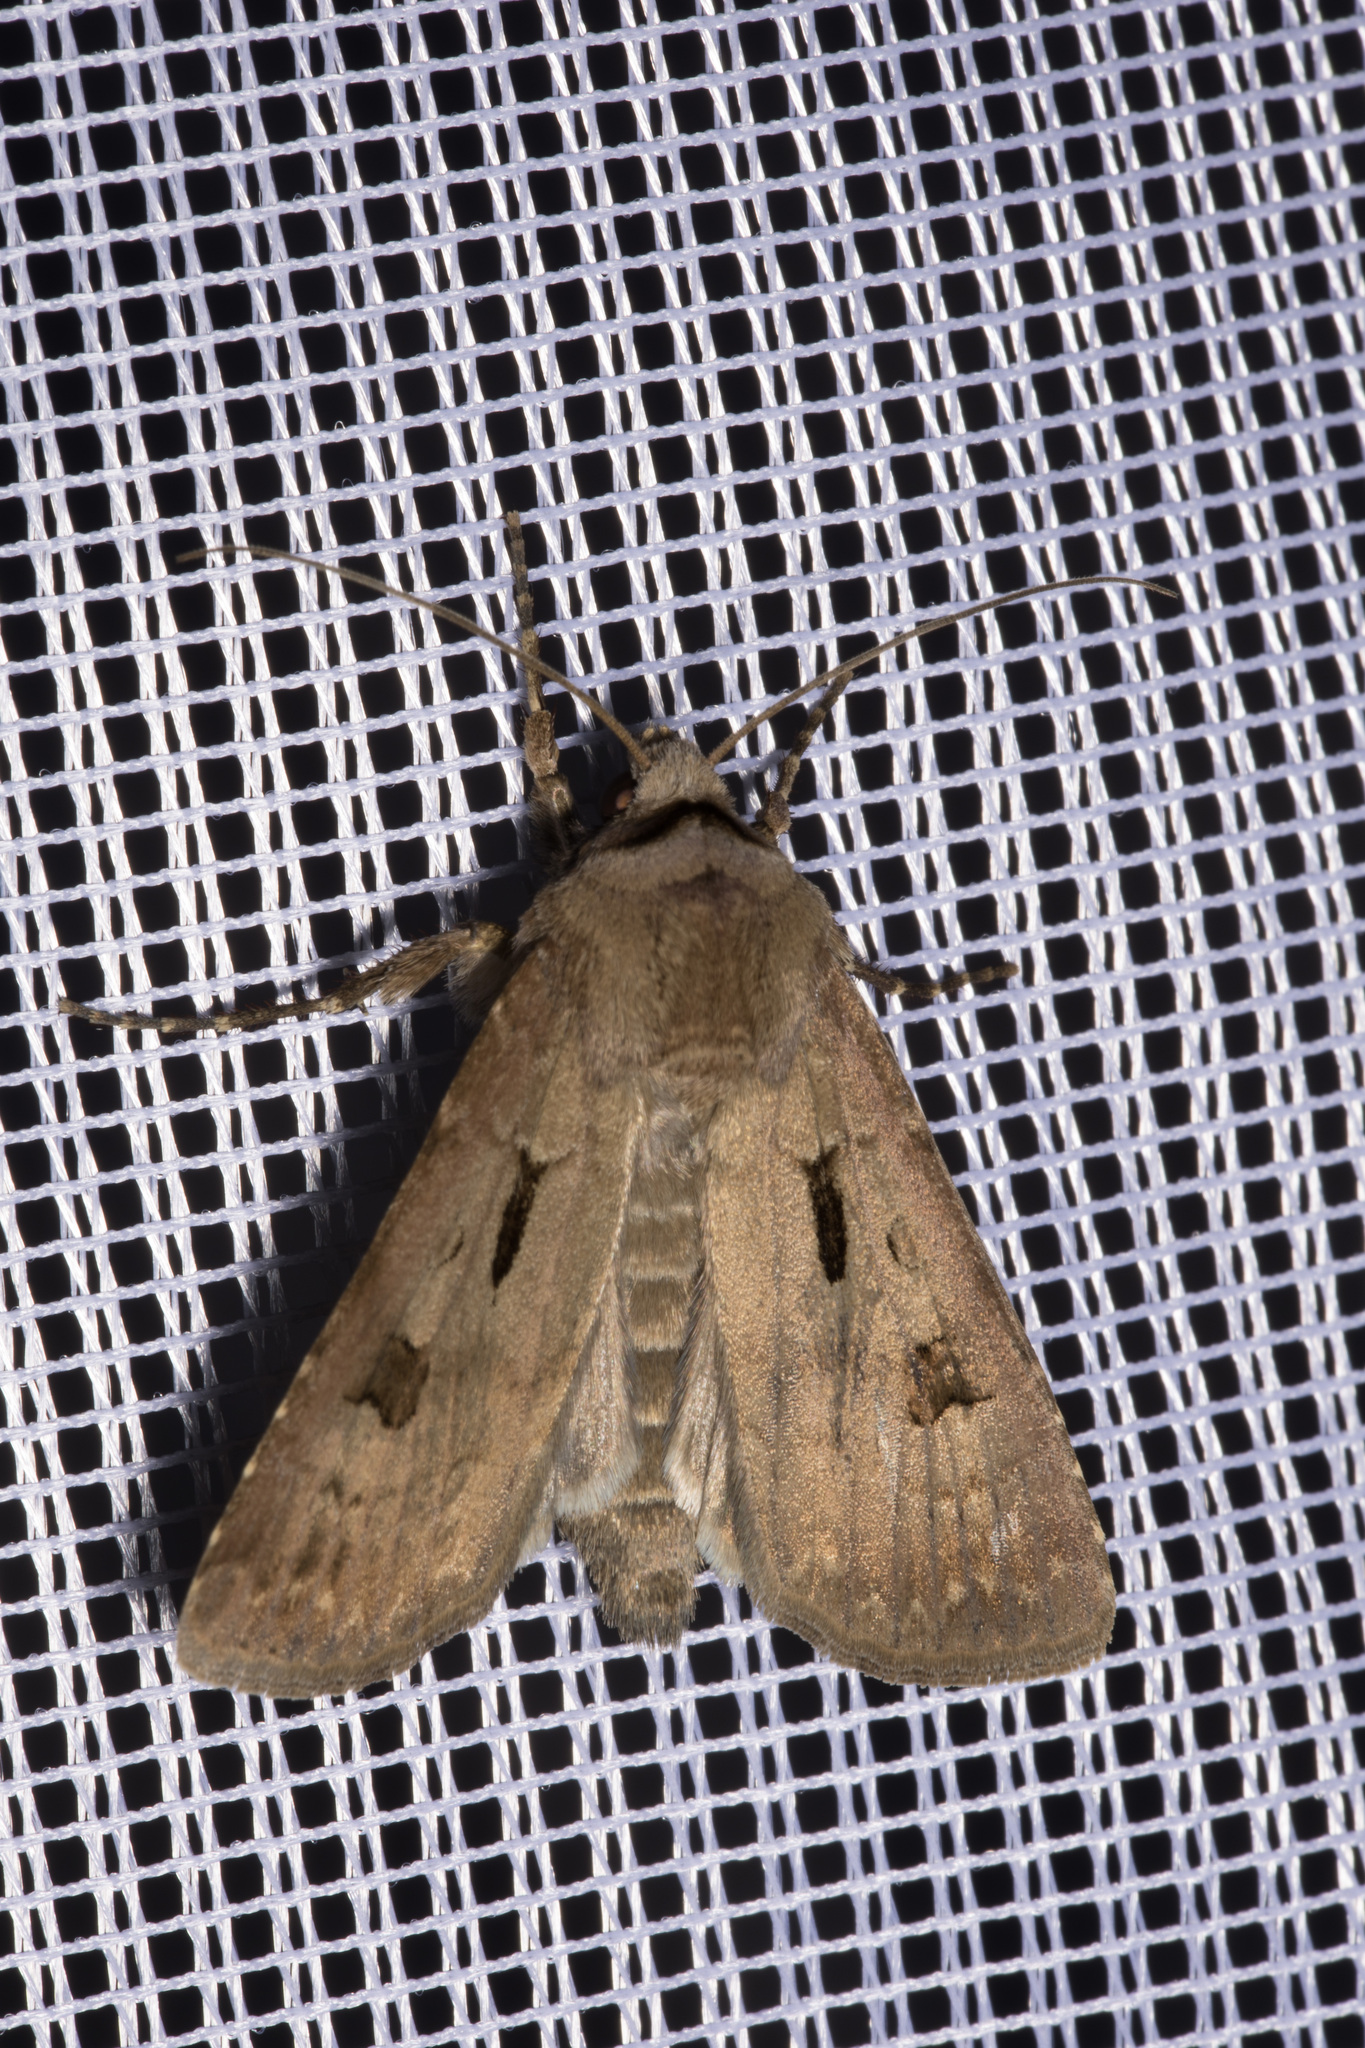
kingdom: Animalia
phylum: Arthropoda
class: Insecta
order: Lepidoptera
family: Noctuidae
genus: Agrotis
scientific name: Agrotis exclamationis
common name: Heart and dart
